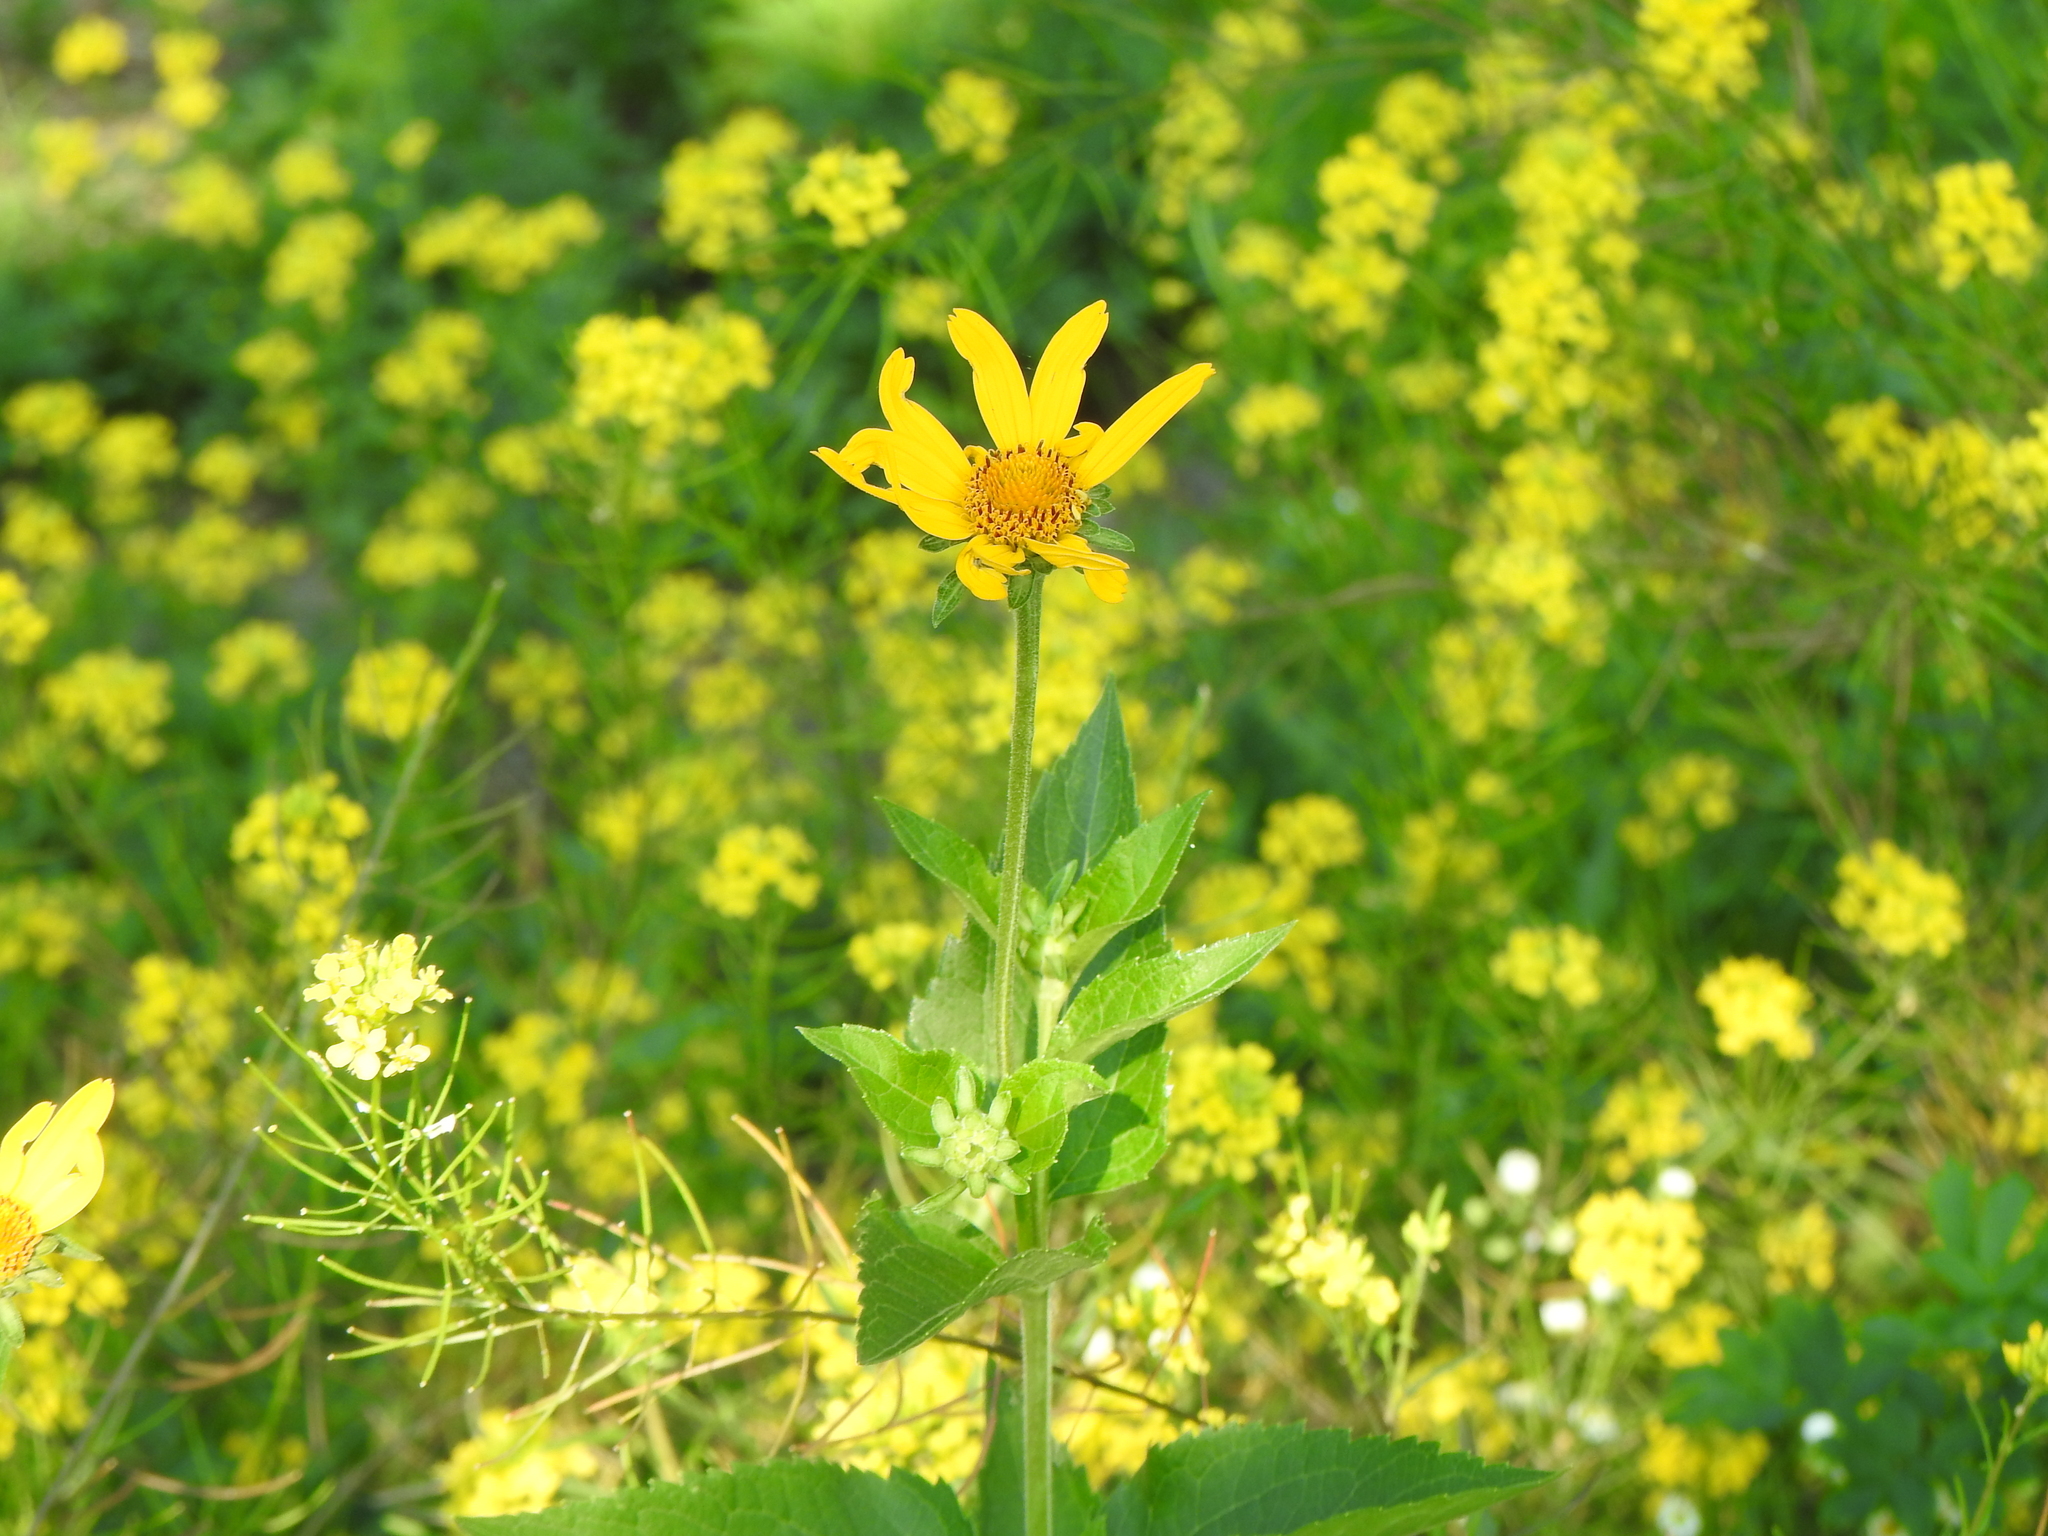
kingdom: Plantae
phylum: Tracheophyta
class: Magnoliopsida
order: Asterales
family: Asteraceae
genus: Heliopsis
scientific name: Heliopsis helianthoides
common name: False sunflower
